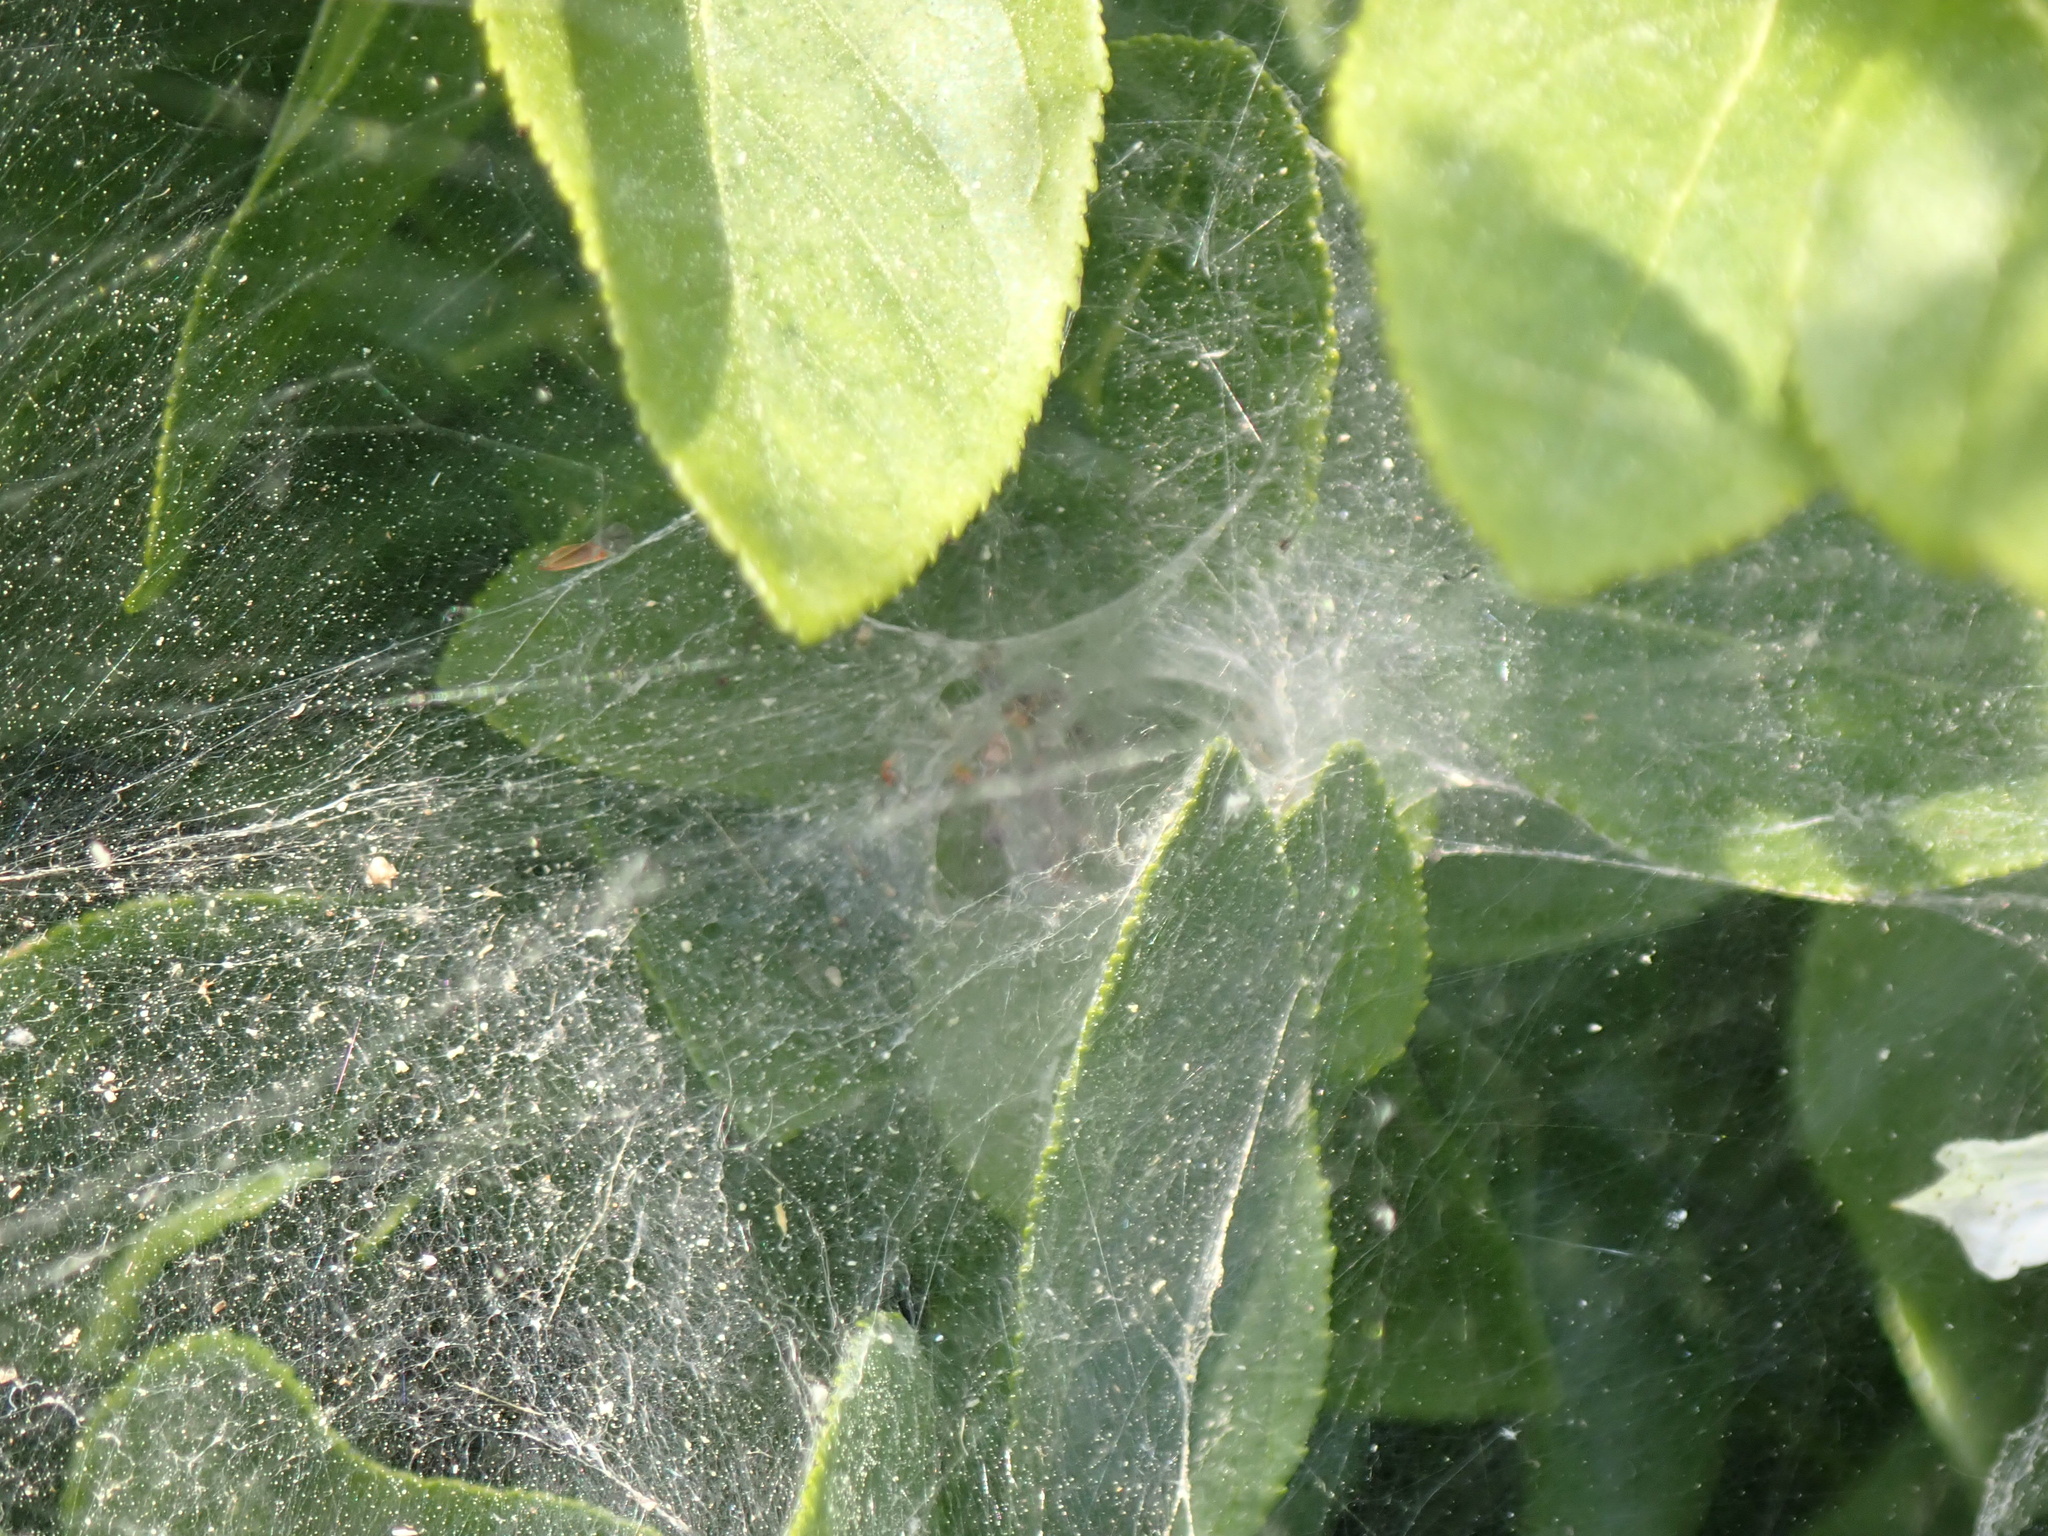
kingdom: Animalia
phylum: Arthropoda
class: Arachnida
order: Araneae
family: Agelenidae
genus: Agelena
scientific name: Agelena labyrinthica
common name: Labyrinth spider
